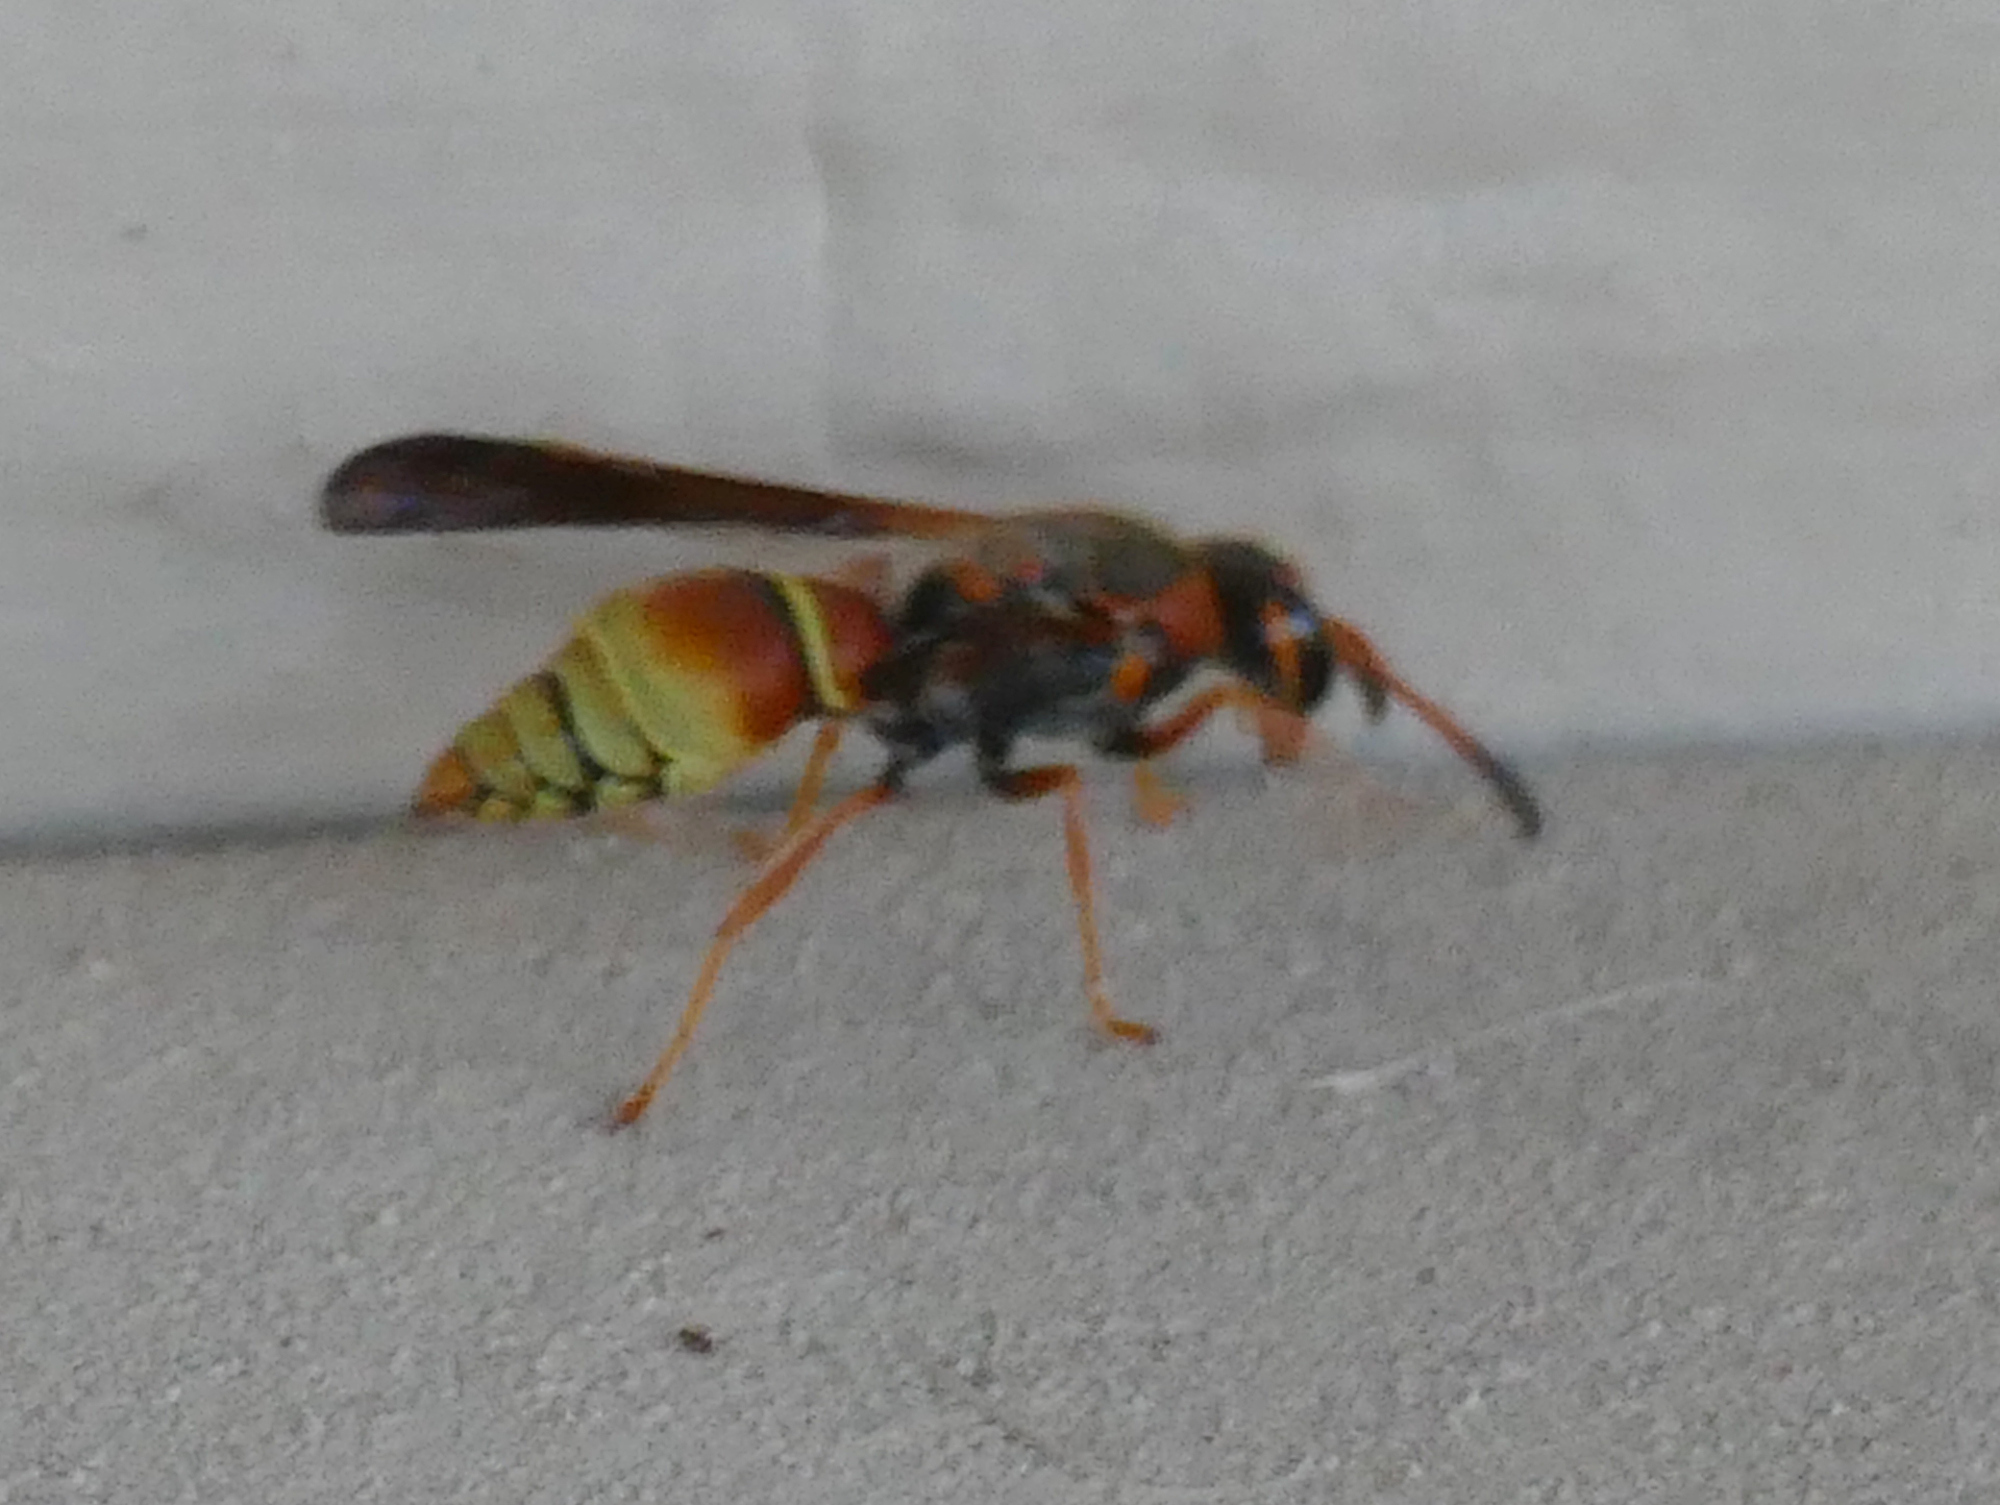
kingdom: Animalia
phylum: Arthropoda
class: Insecta
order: Hymenoptera
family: Vespidae
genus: Ancistrocerus
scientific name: Ancistrocerus
